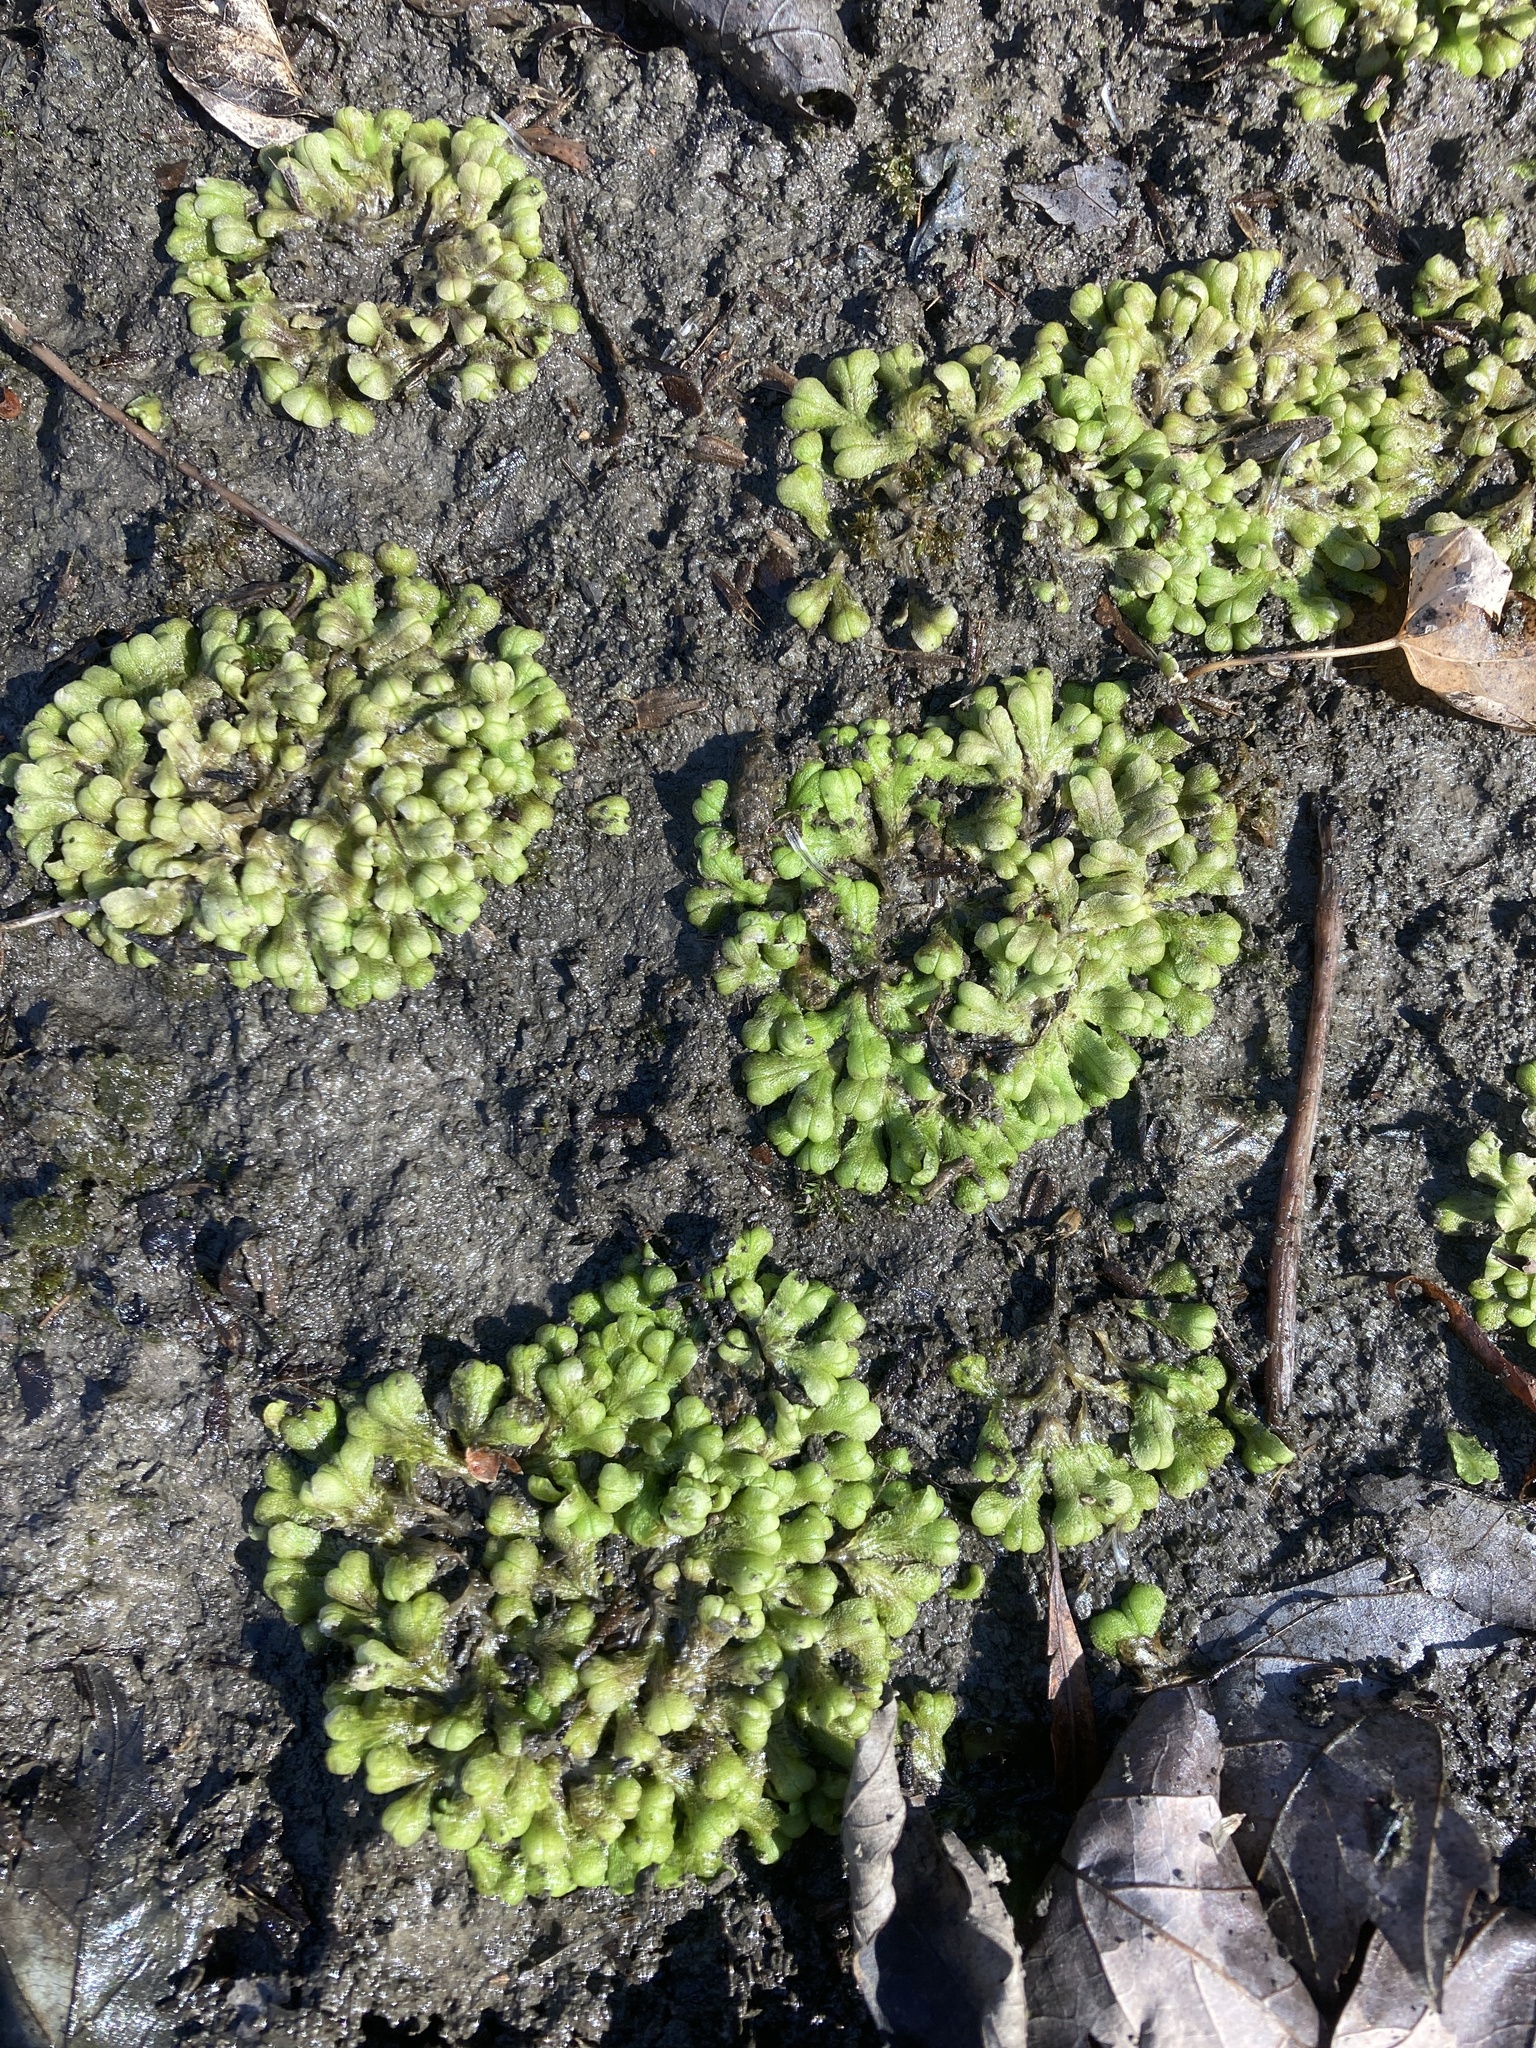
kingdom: Plantae
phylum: Marchantiophyta
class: Marchantiopsida
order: Marchantiales
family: Ricciaceae
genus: Ricciocarpos
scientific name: Ricciocarpos natans
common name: Purple-fringed liverwort
